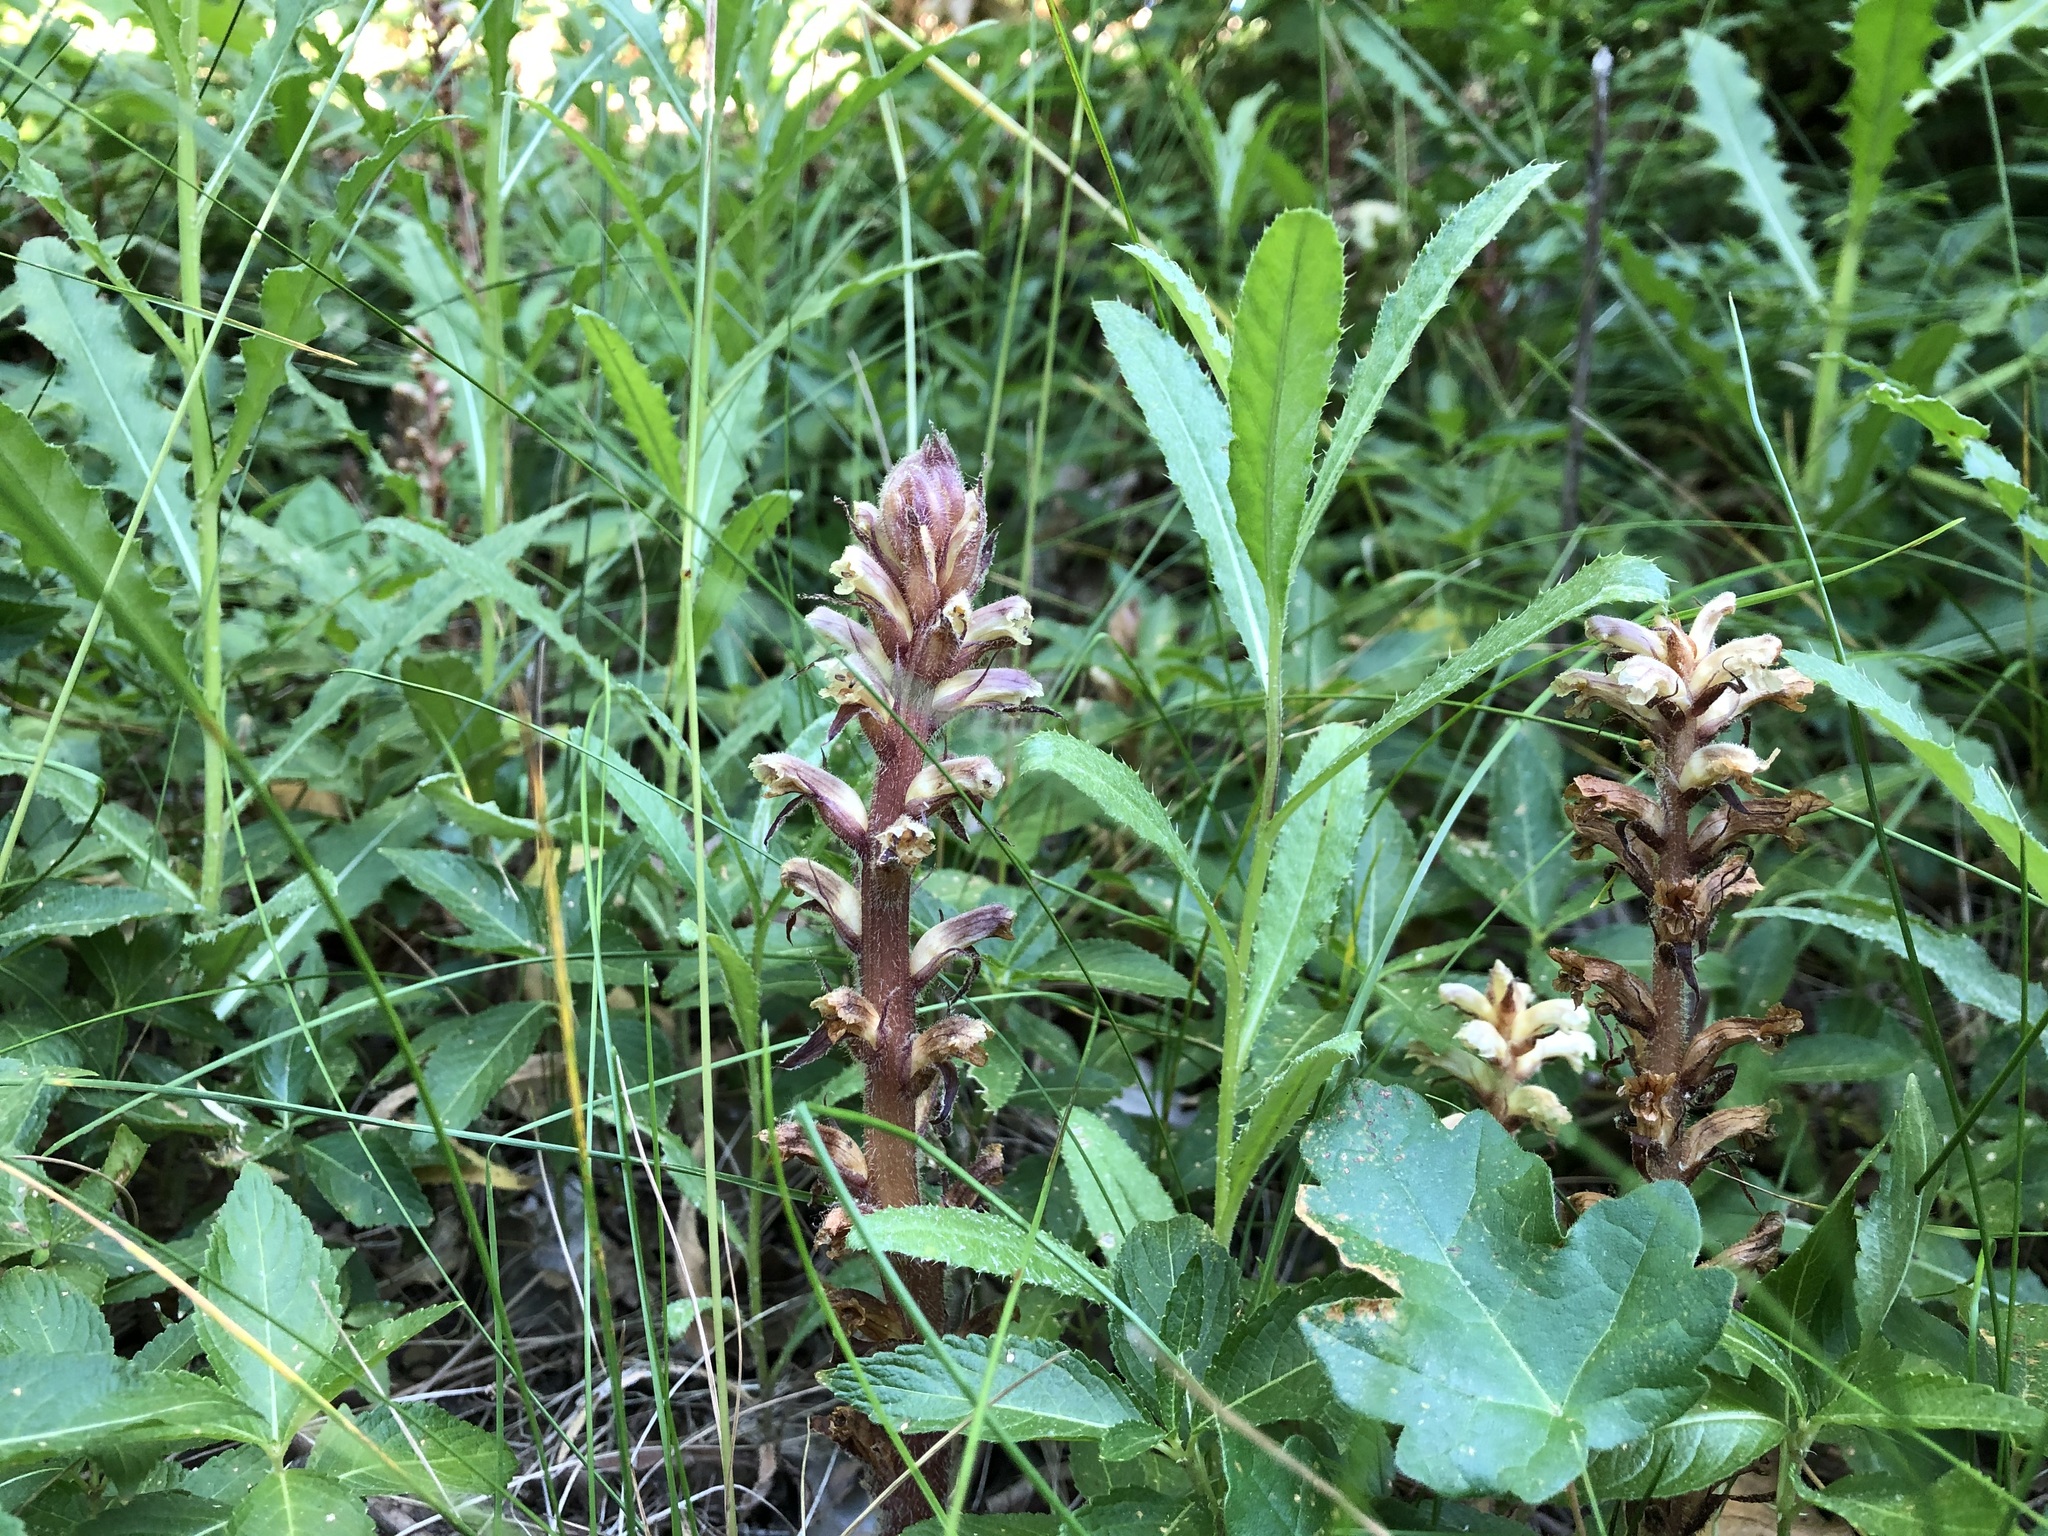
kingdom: Plantae
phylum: Tracheophyta
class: Magnoliopsida
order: Lamiales
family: Orobanchaceae
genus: Orobanche
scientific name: Orobanche minor
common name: Common broomrape
